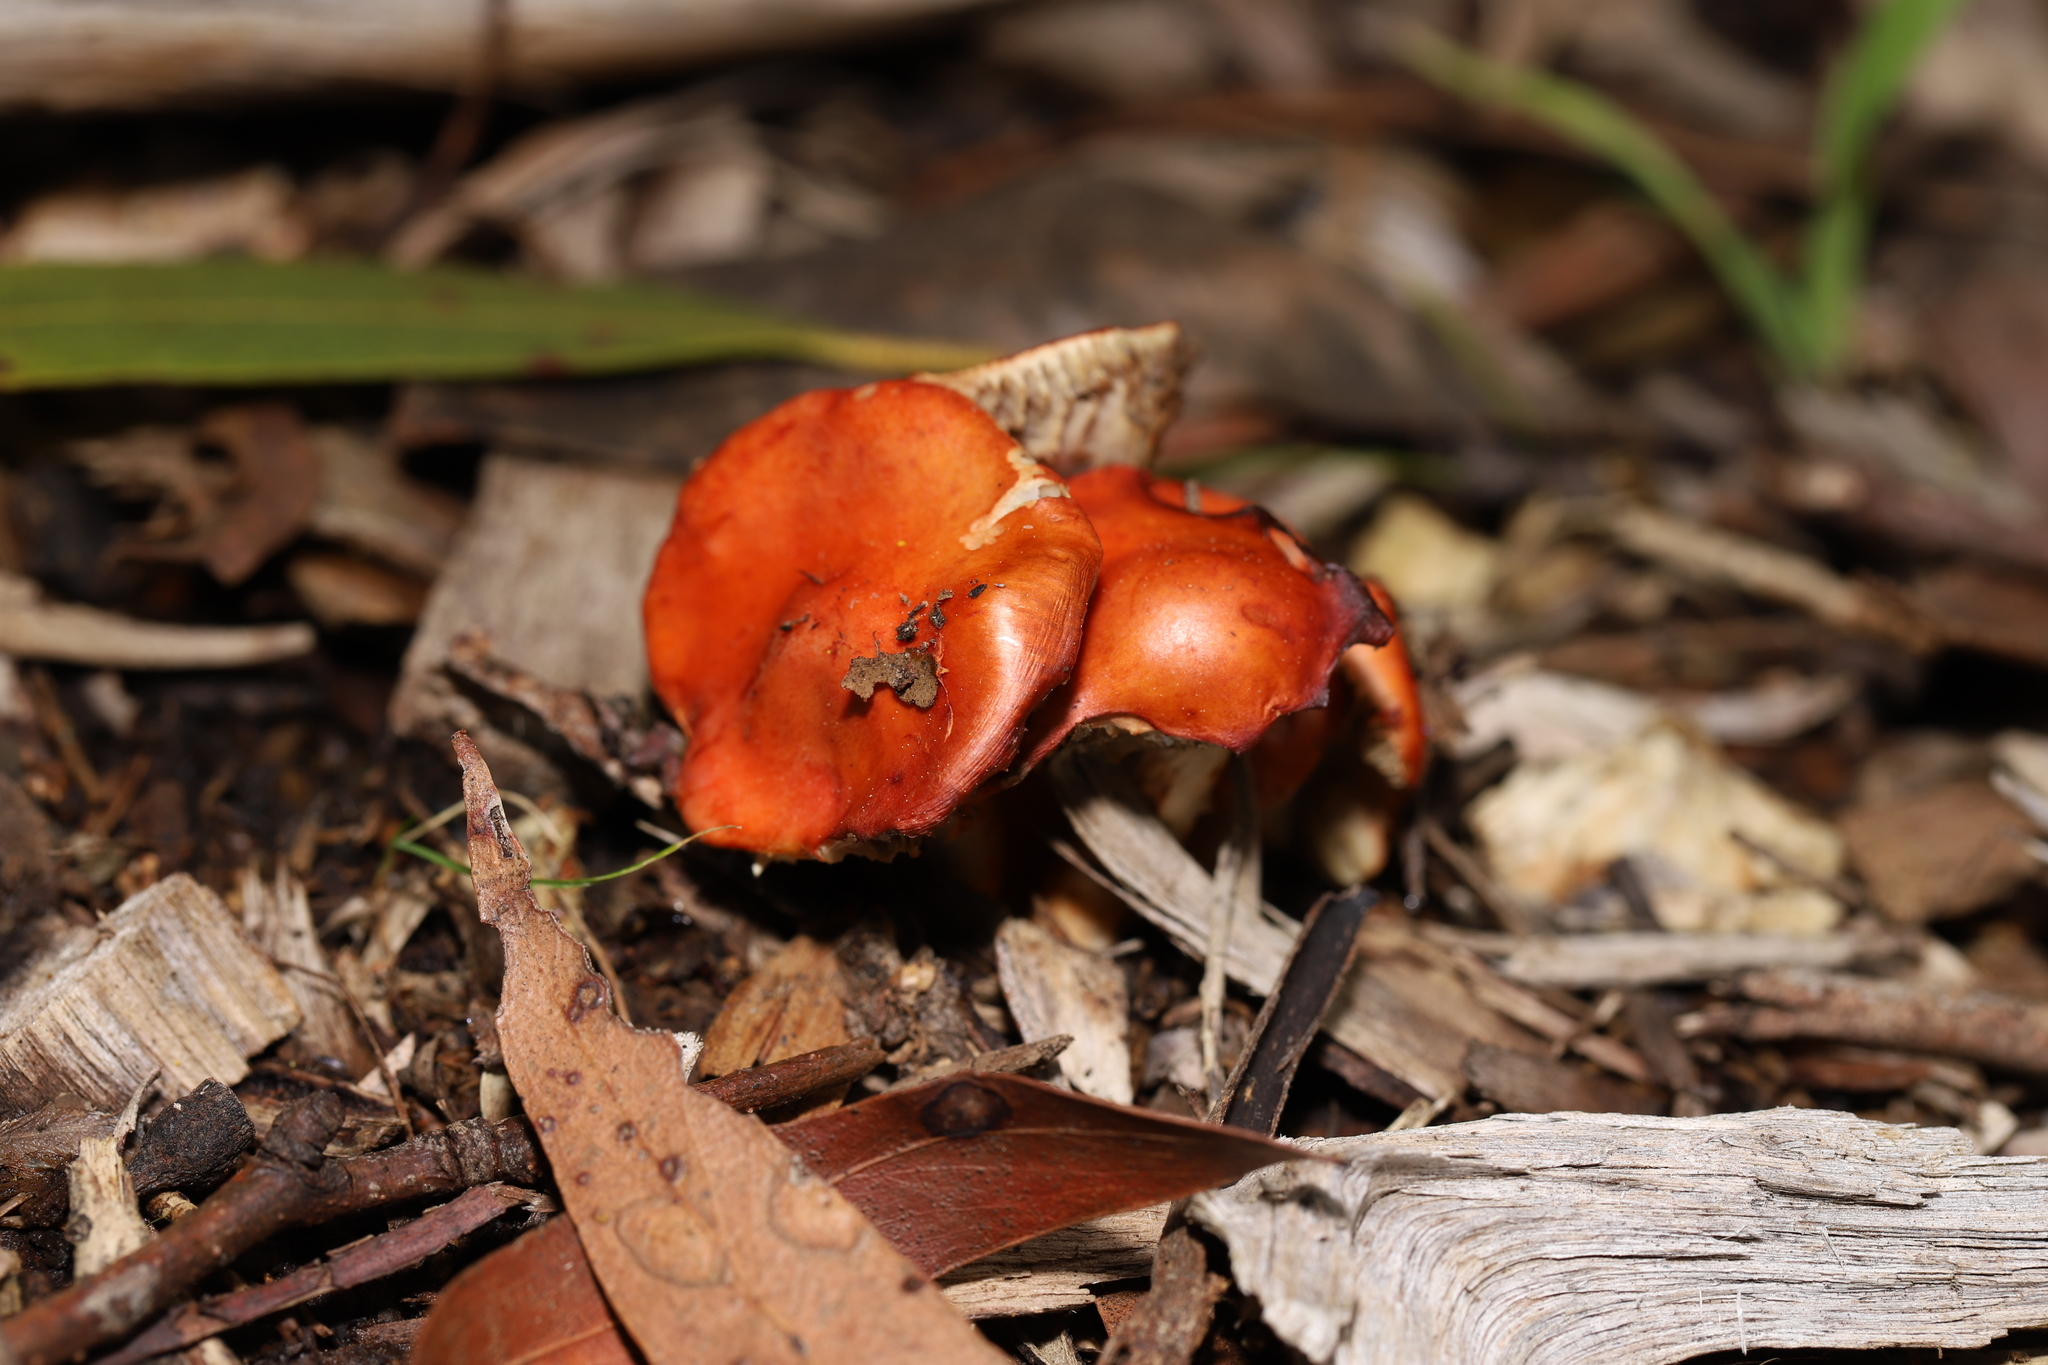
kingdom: Fungi
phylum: Basidiomycota
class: Agaricomycetes
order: Agaricales
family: Strophariaceae
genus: Leratiomyces
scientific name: Leratiomyces ceres
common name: Redlead roundhead
